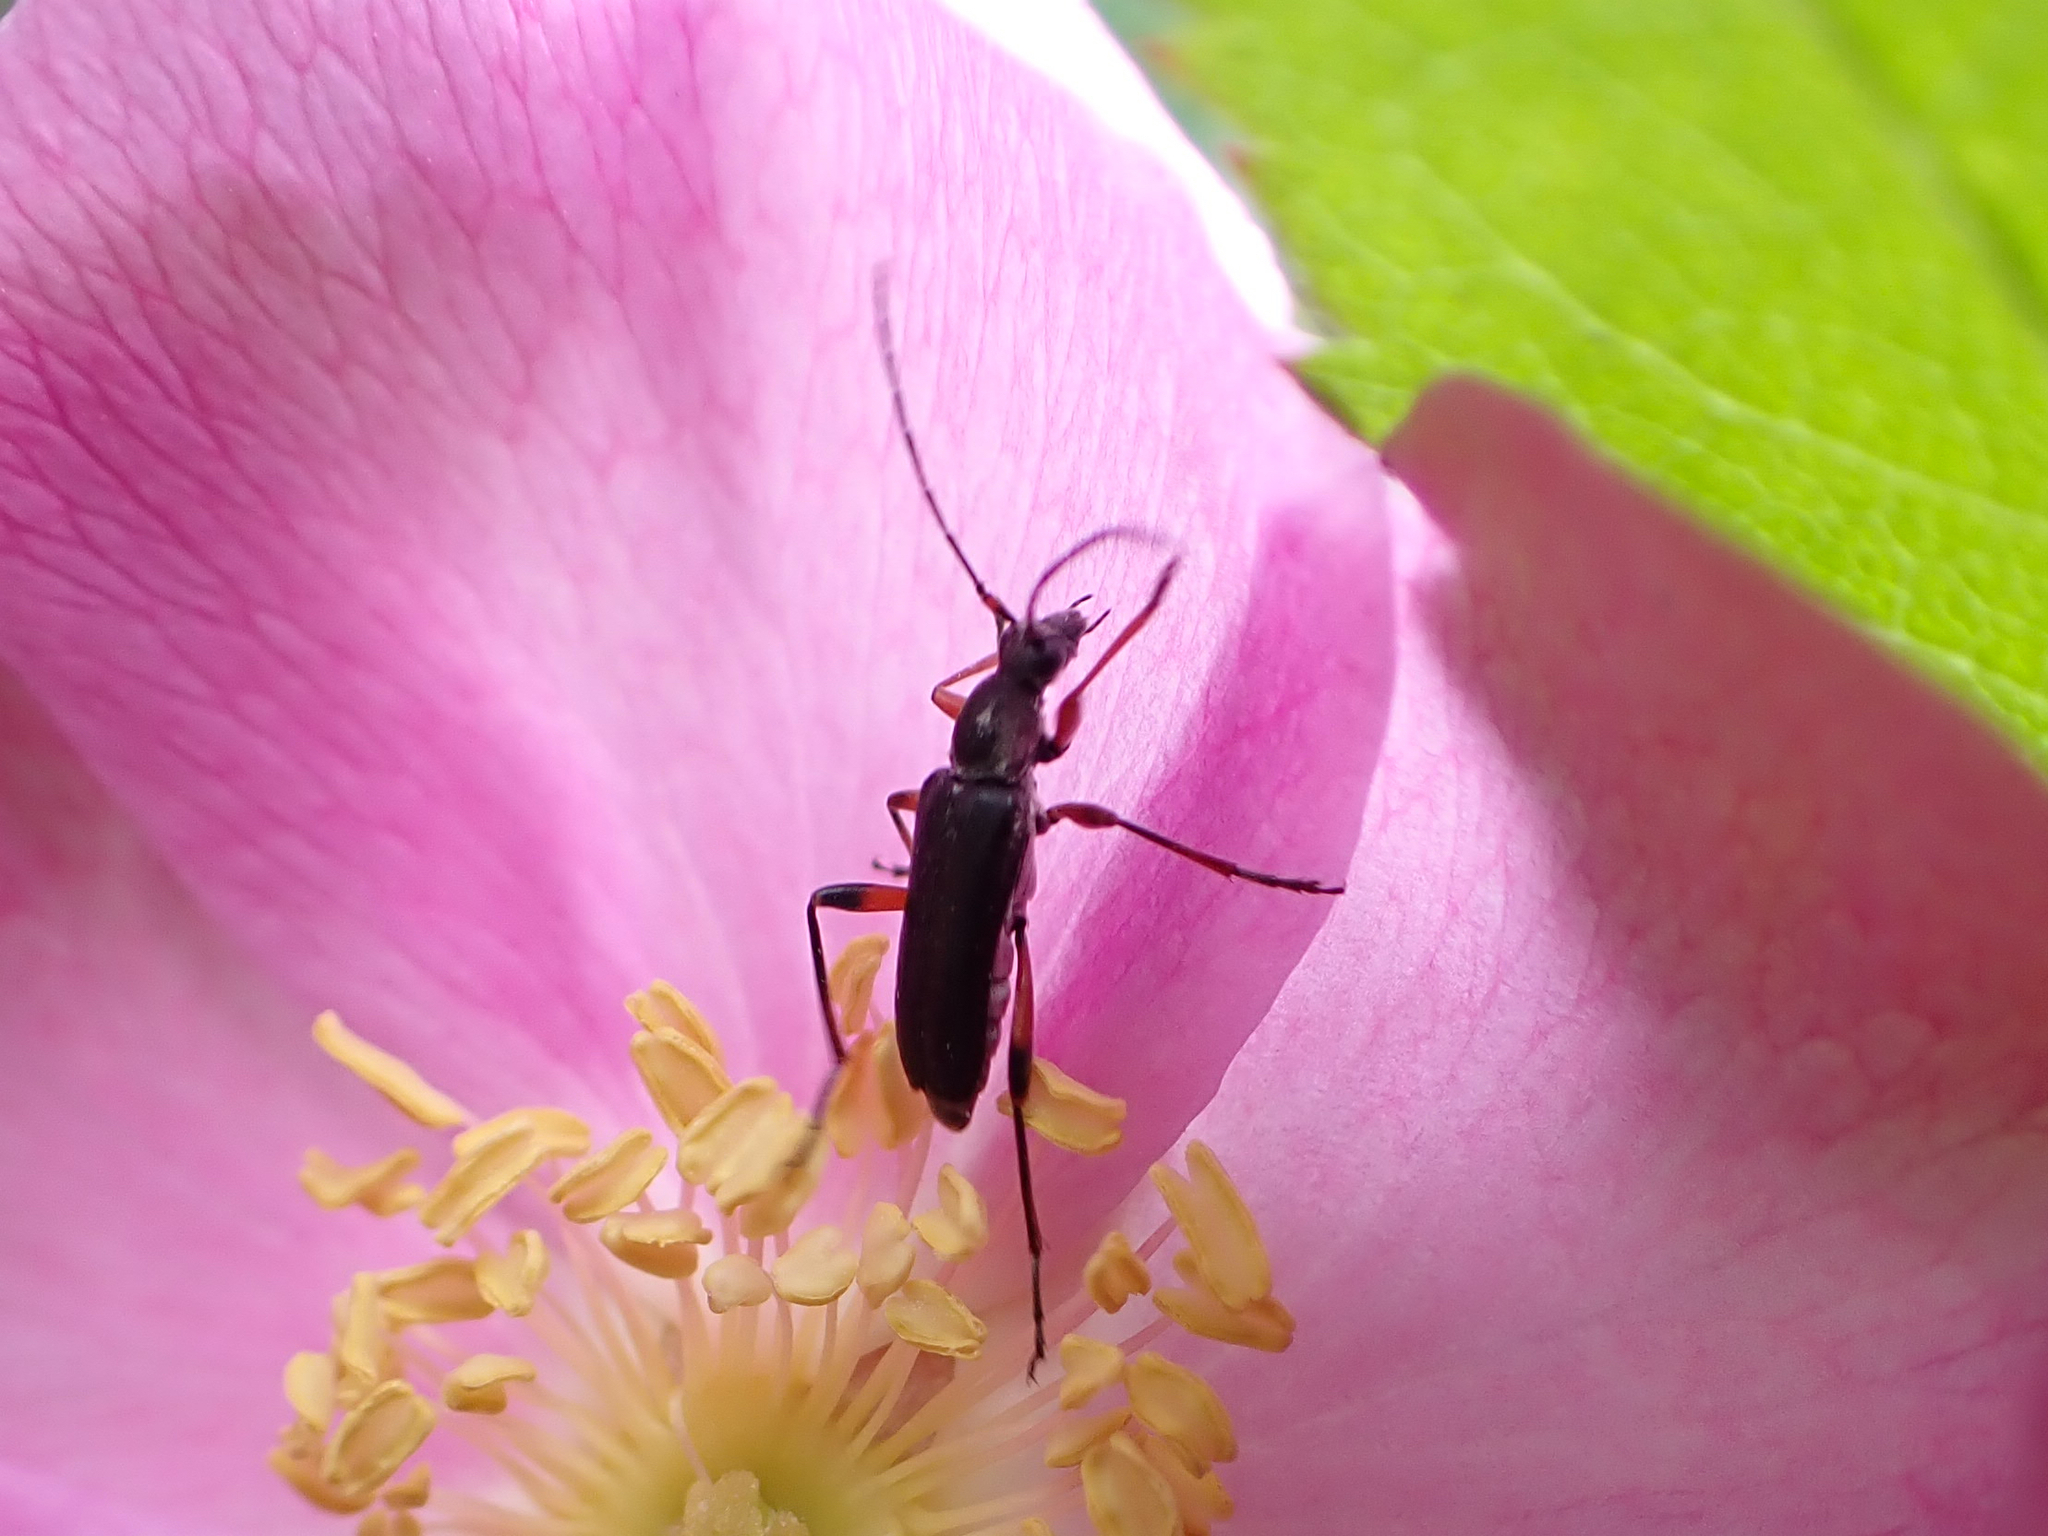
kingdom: Animalia
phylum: Arthropoda
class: Insecta
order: Coleoptera
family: Cerambycidae
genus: Grammoptera
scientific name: Grammoptera subargentata
